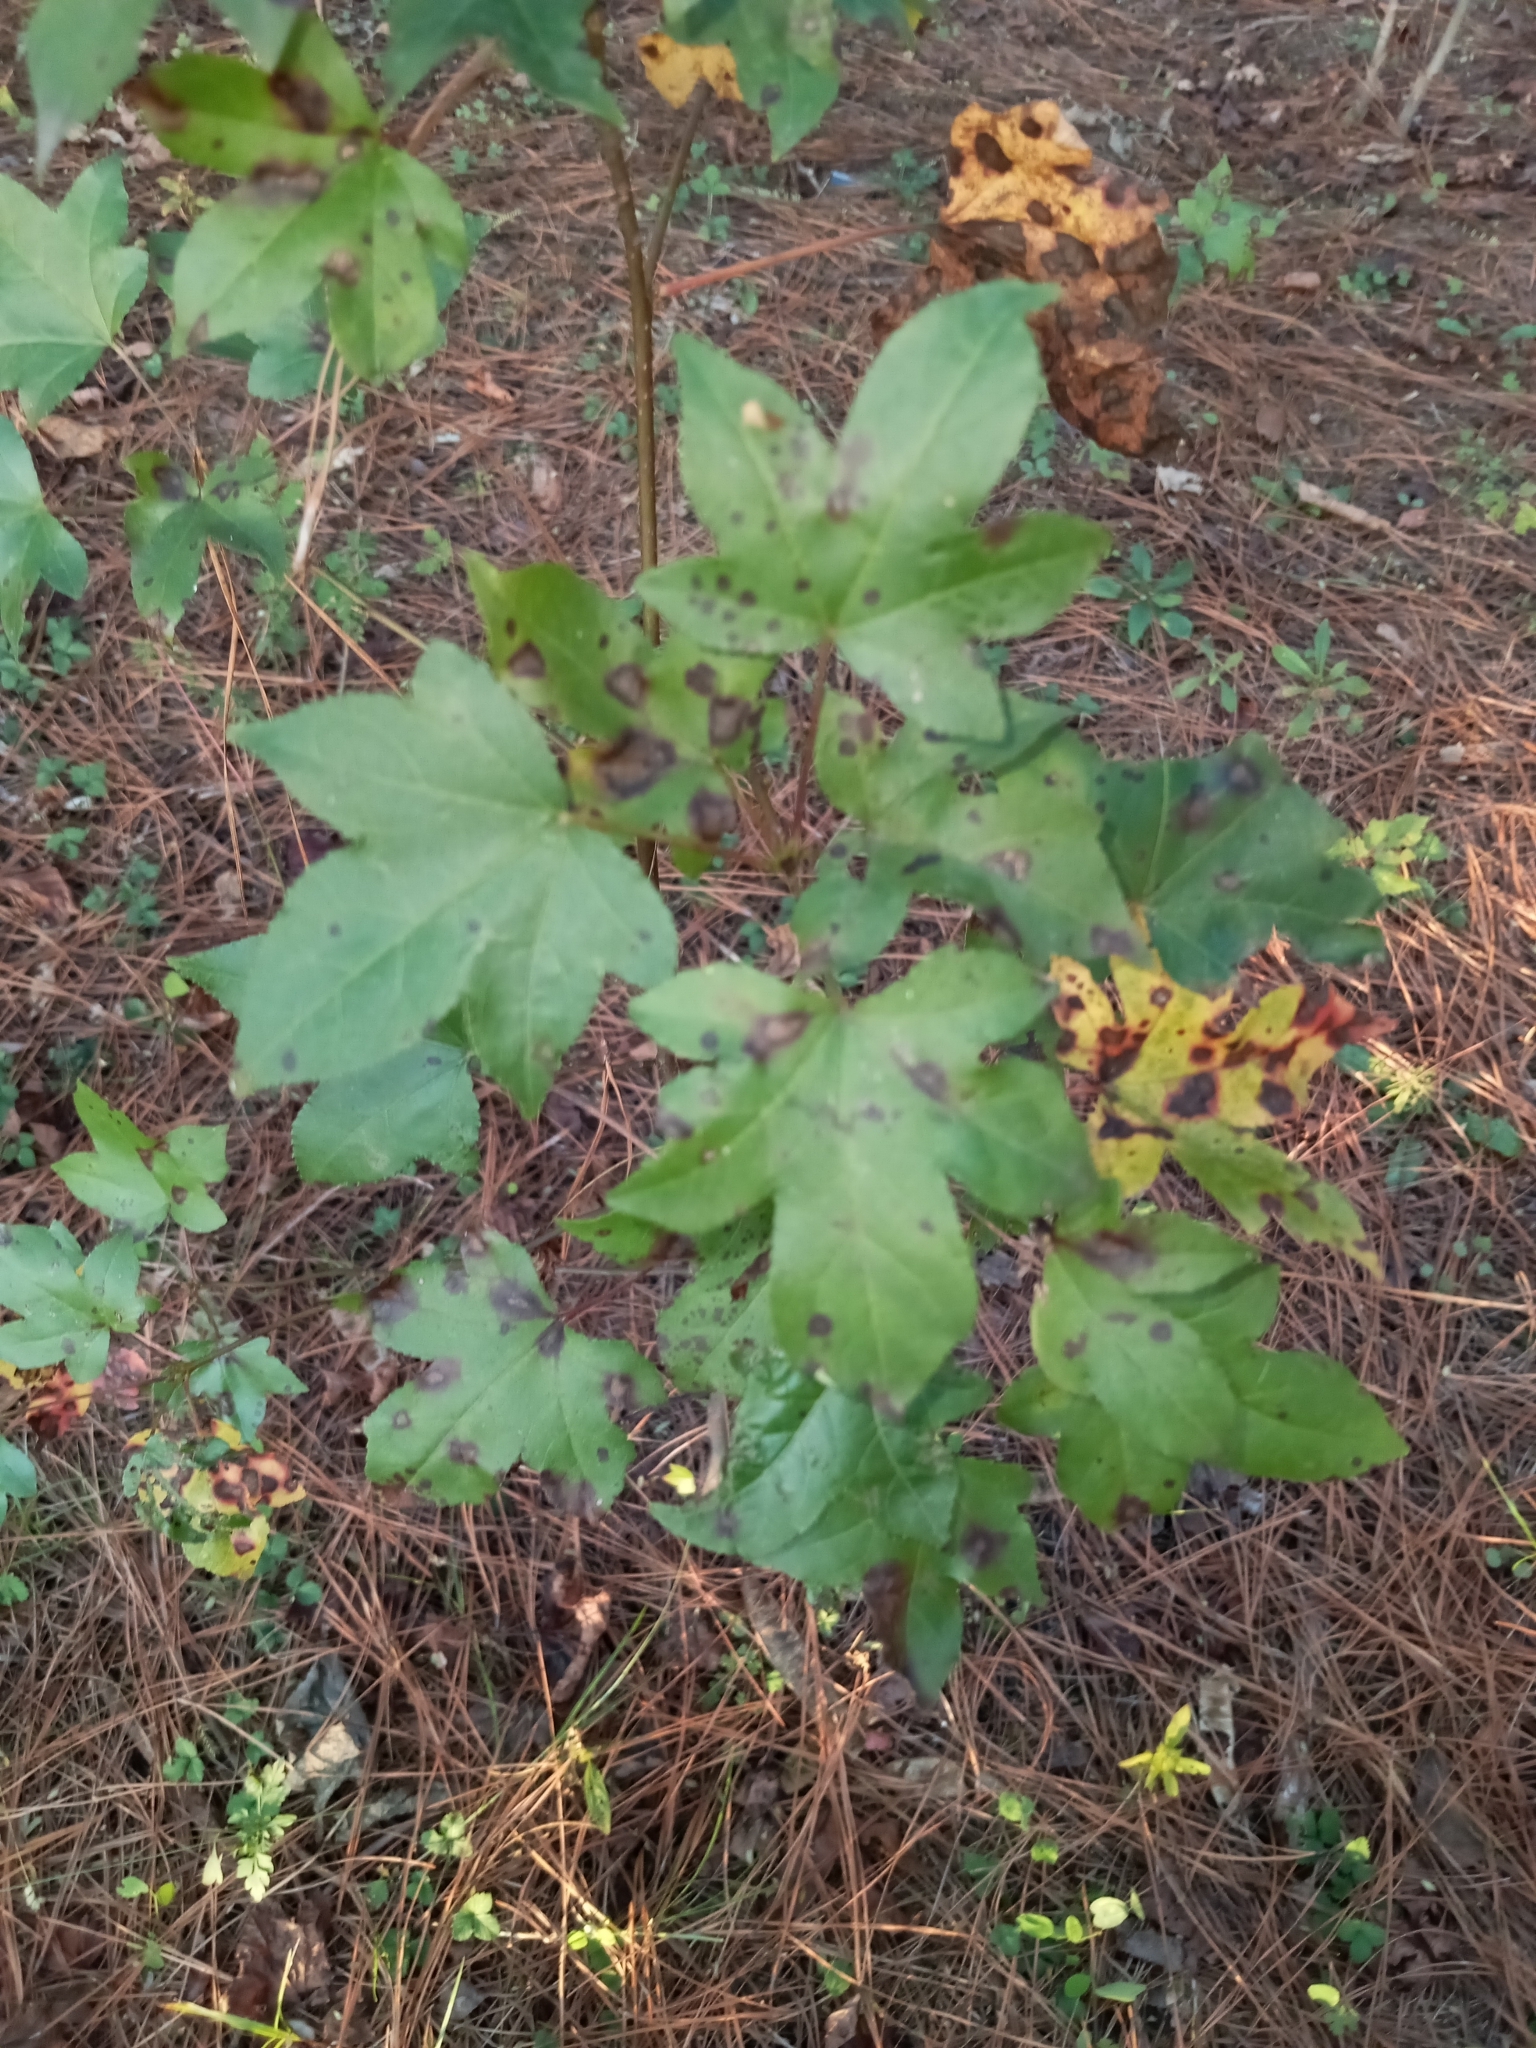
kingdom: Plantae
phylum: Tracheophyta
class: Magnoliopsida
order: Saxifragales
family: Altingiaceae
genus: Liquidambar
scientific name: Liquidambar styraciflua
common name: Sweet gum
